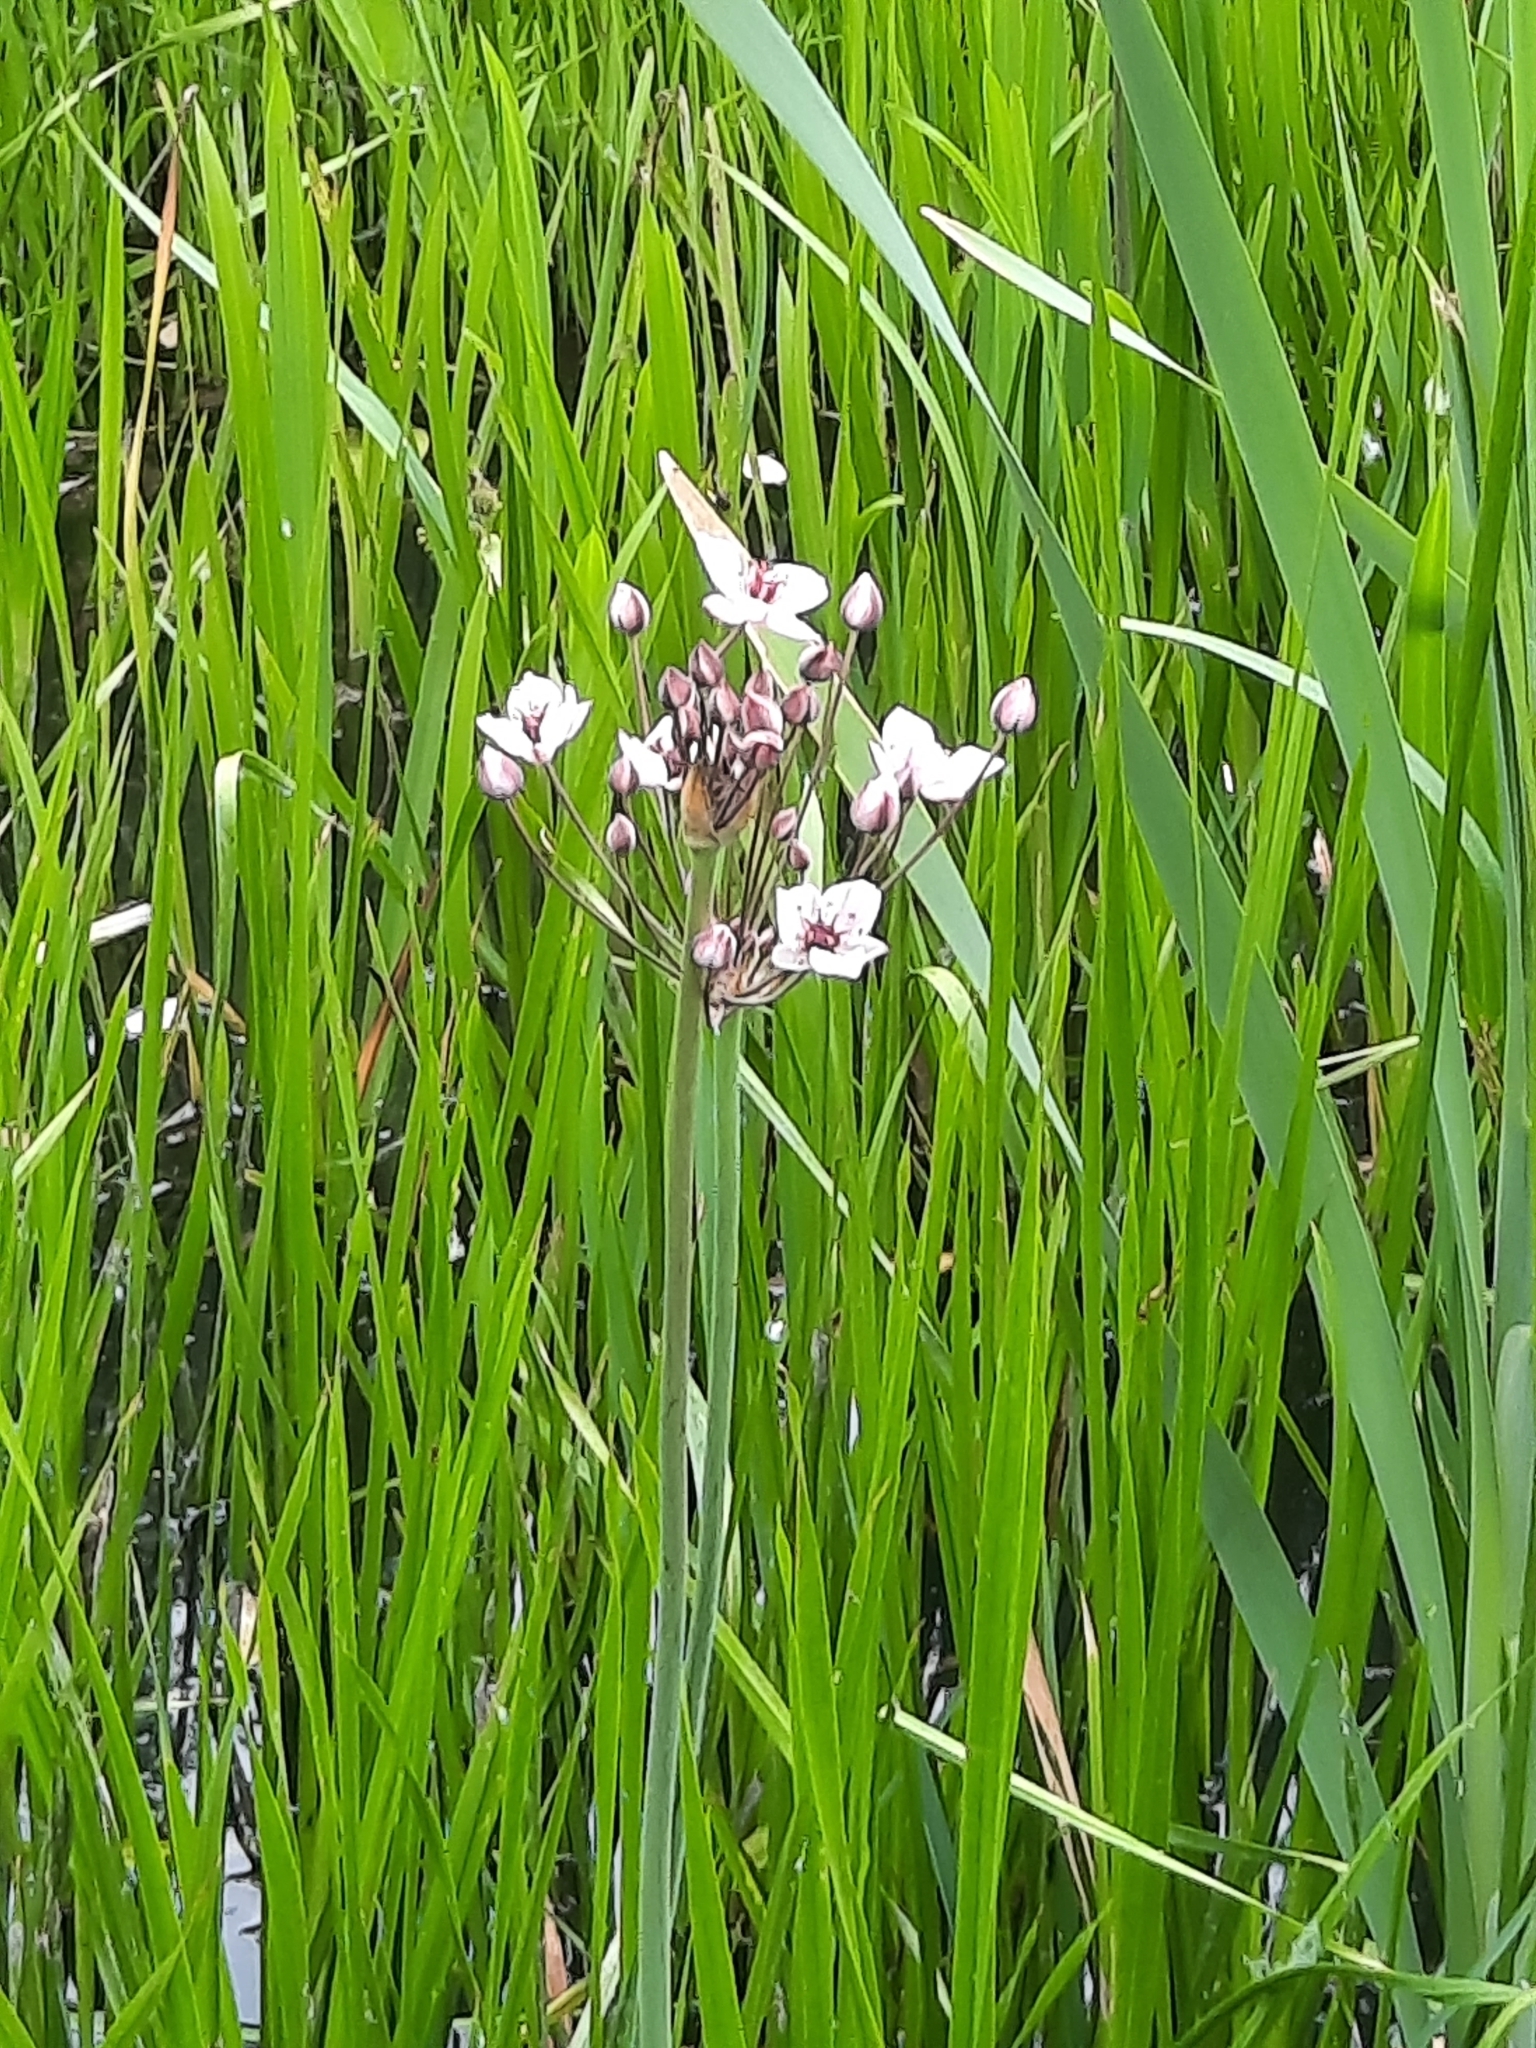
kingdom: Plantae
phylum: Tracheophyta
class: Liliopsida
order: Alismatales
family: Butomaceae
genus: Butomus
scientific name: Butomus umbellatus
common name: Flowering-rush
